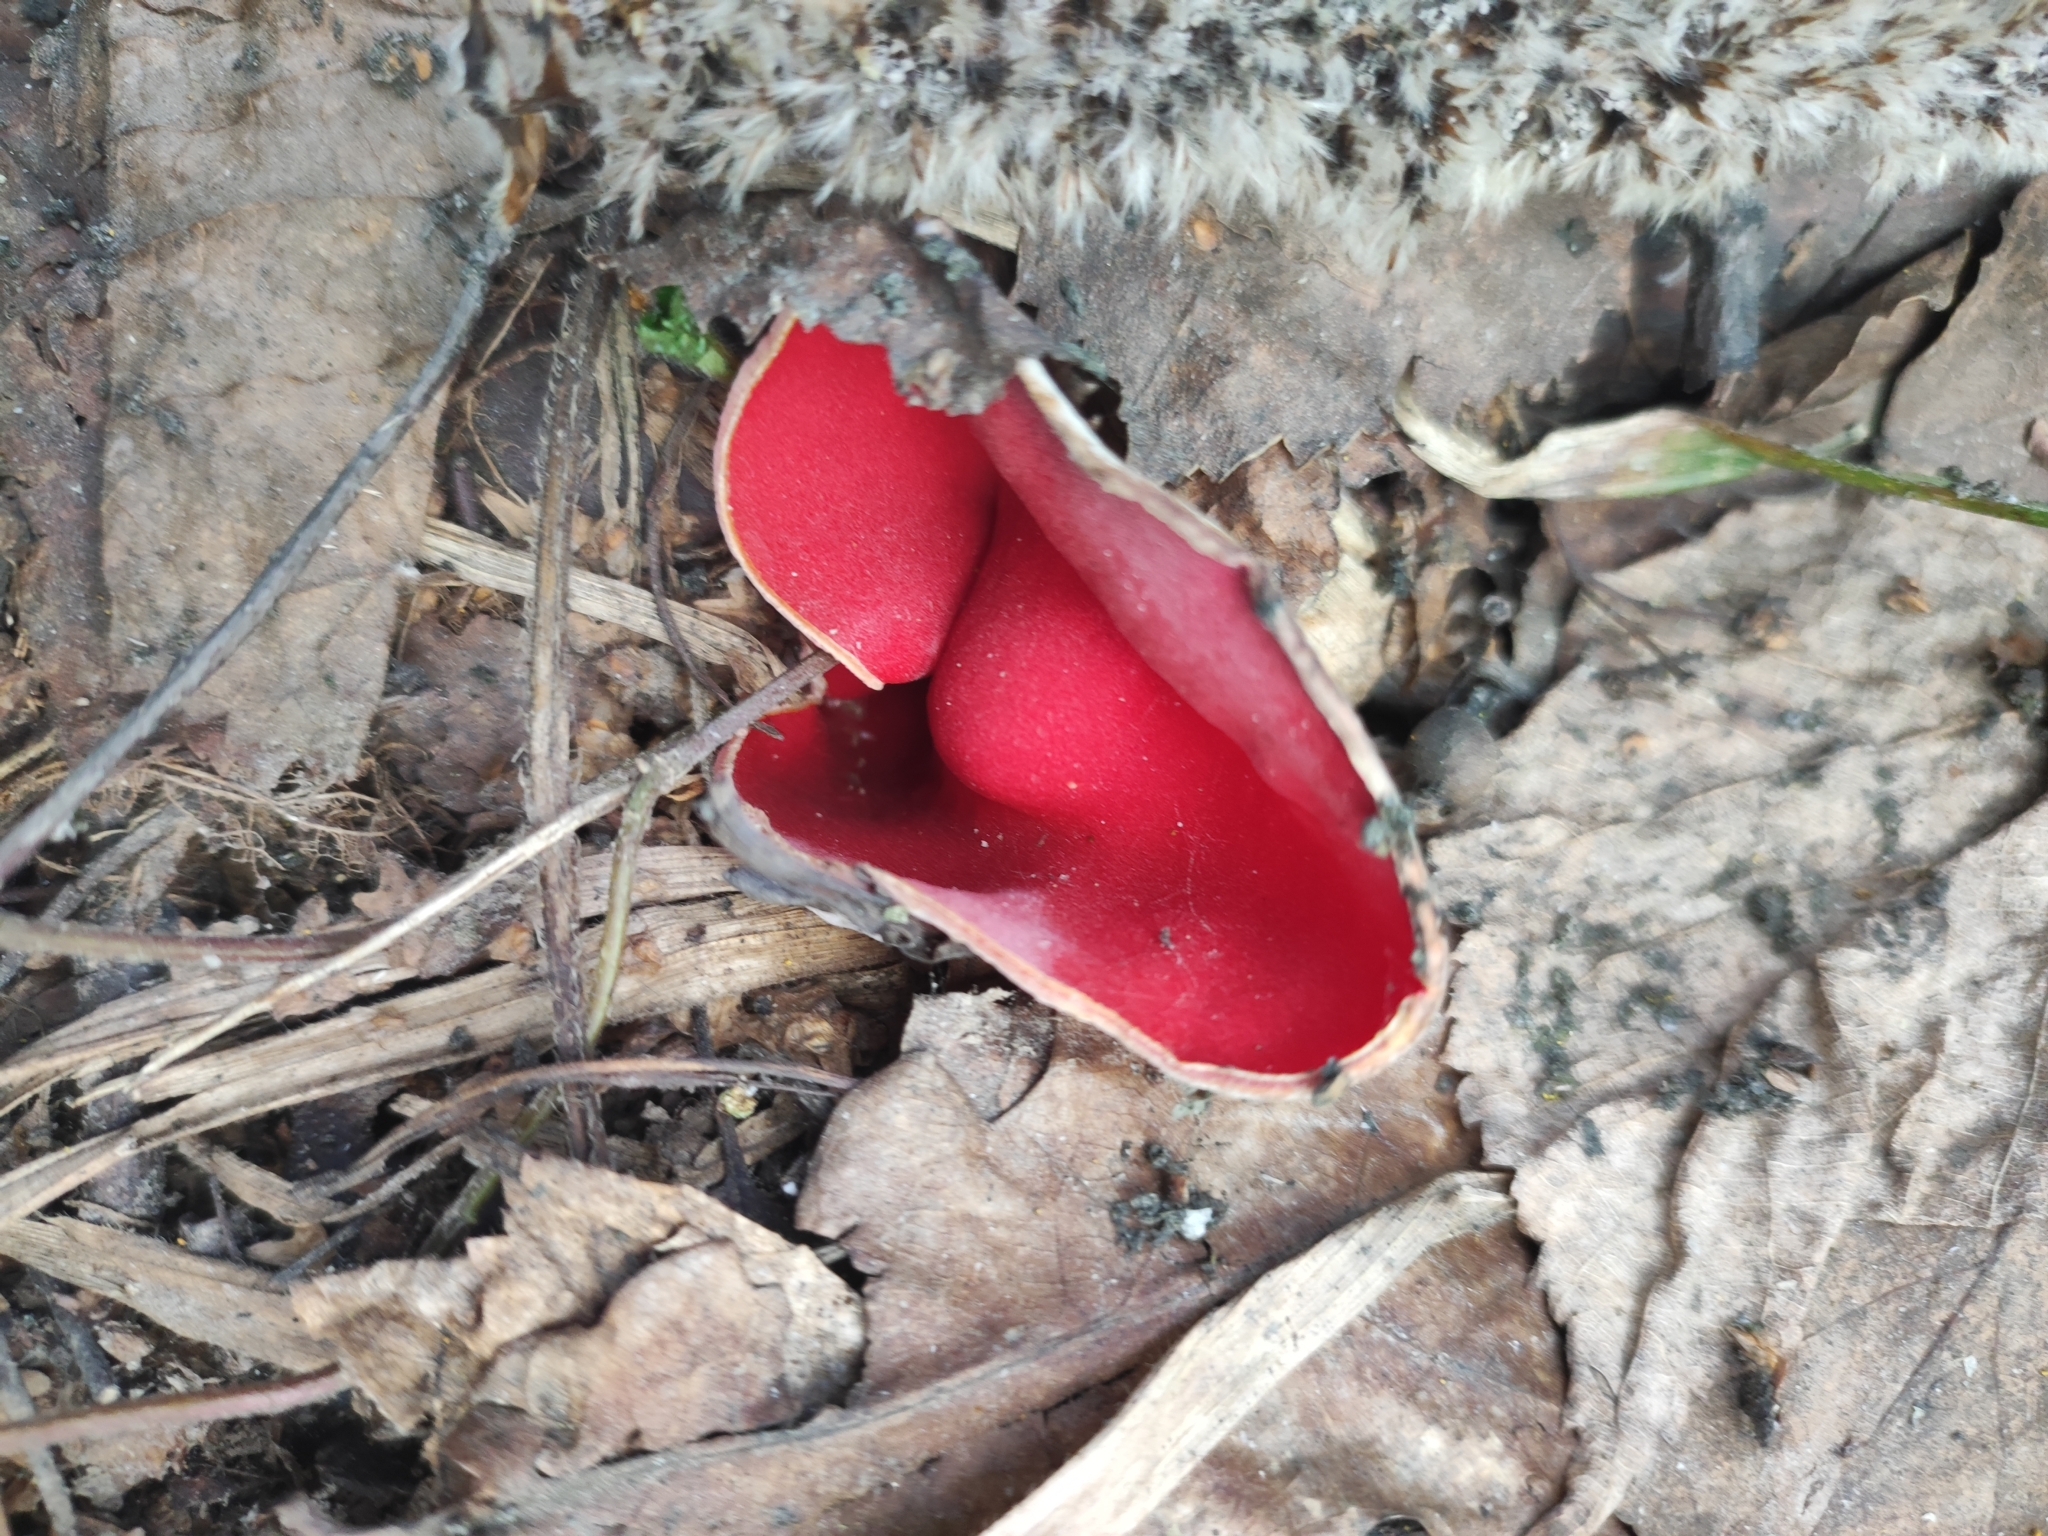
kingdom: Fungi
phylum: Ascomycota
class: Pezizomycetes
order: Pezizales
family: Sarcoscyphaceae
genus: Sarcoscypha
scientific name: Sarcoscypha austriaca
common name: Scarlet elfcup
